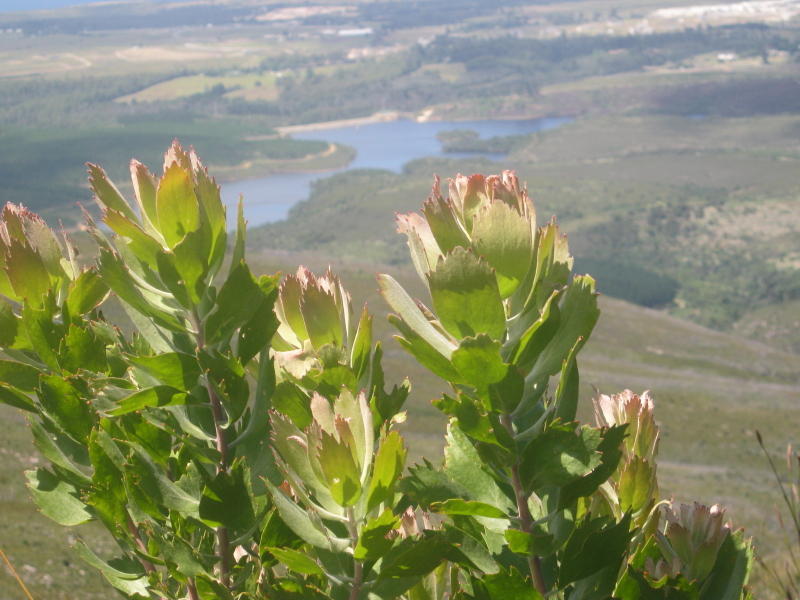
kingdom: Plantae
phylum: Tracheophyta
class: Magnoliopsida
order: Proteales
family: Proteaceae
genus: Leucospermum
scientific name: Leucospermum glabrum
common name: Outeniqua pincushion
